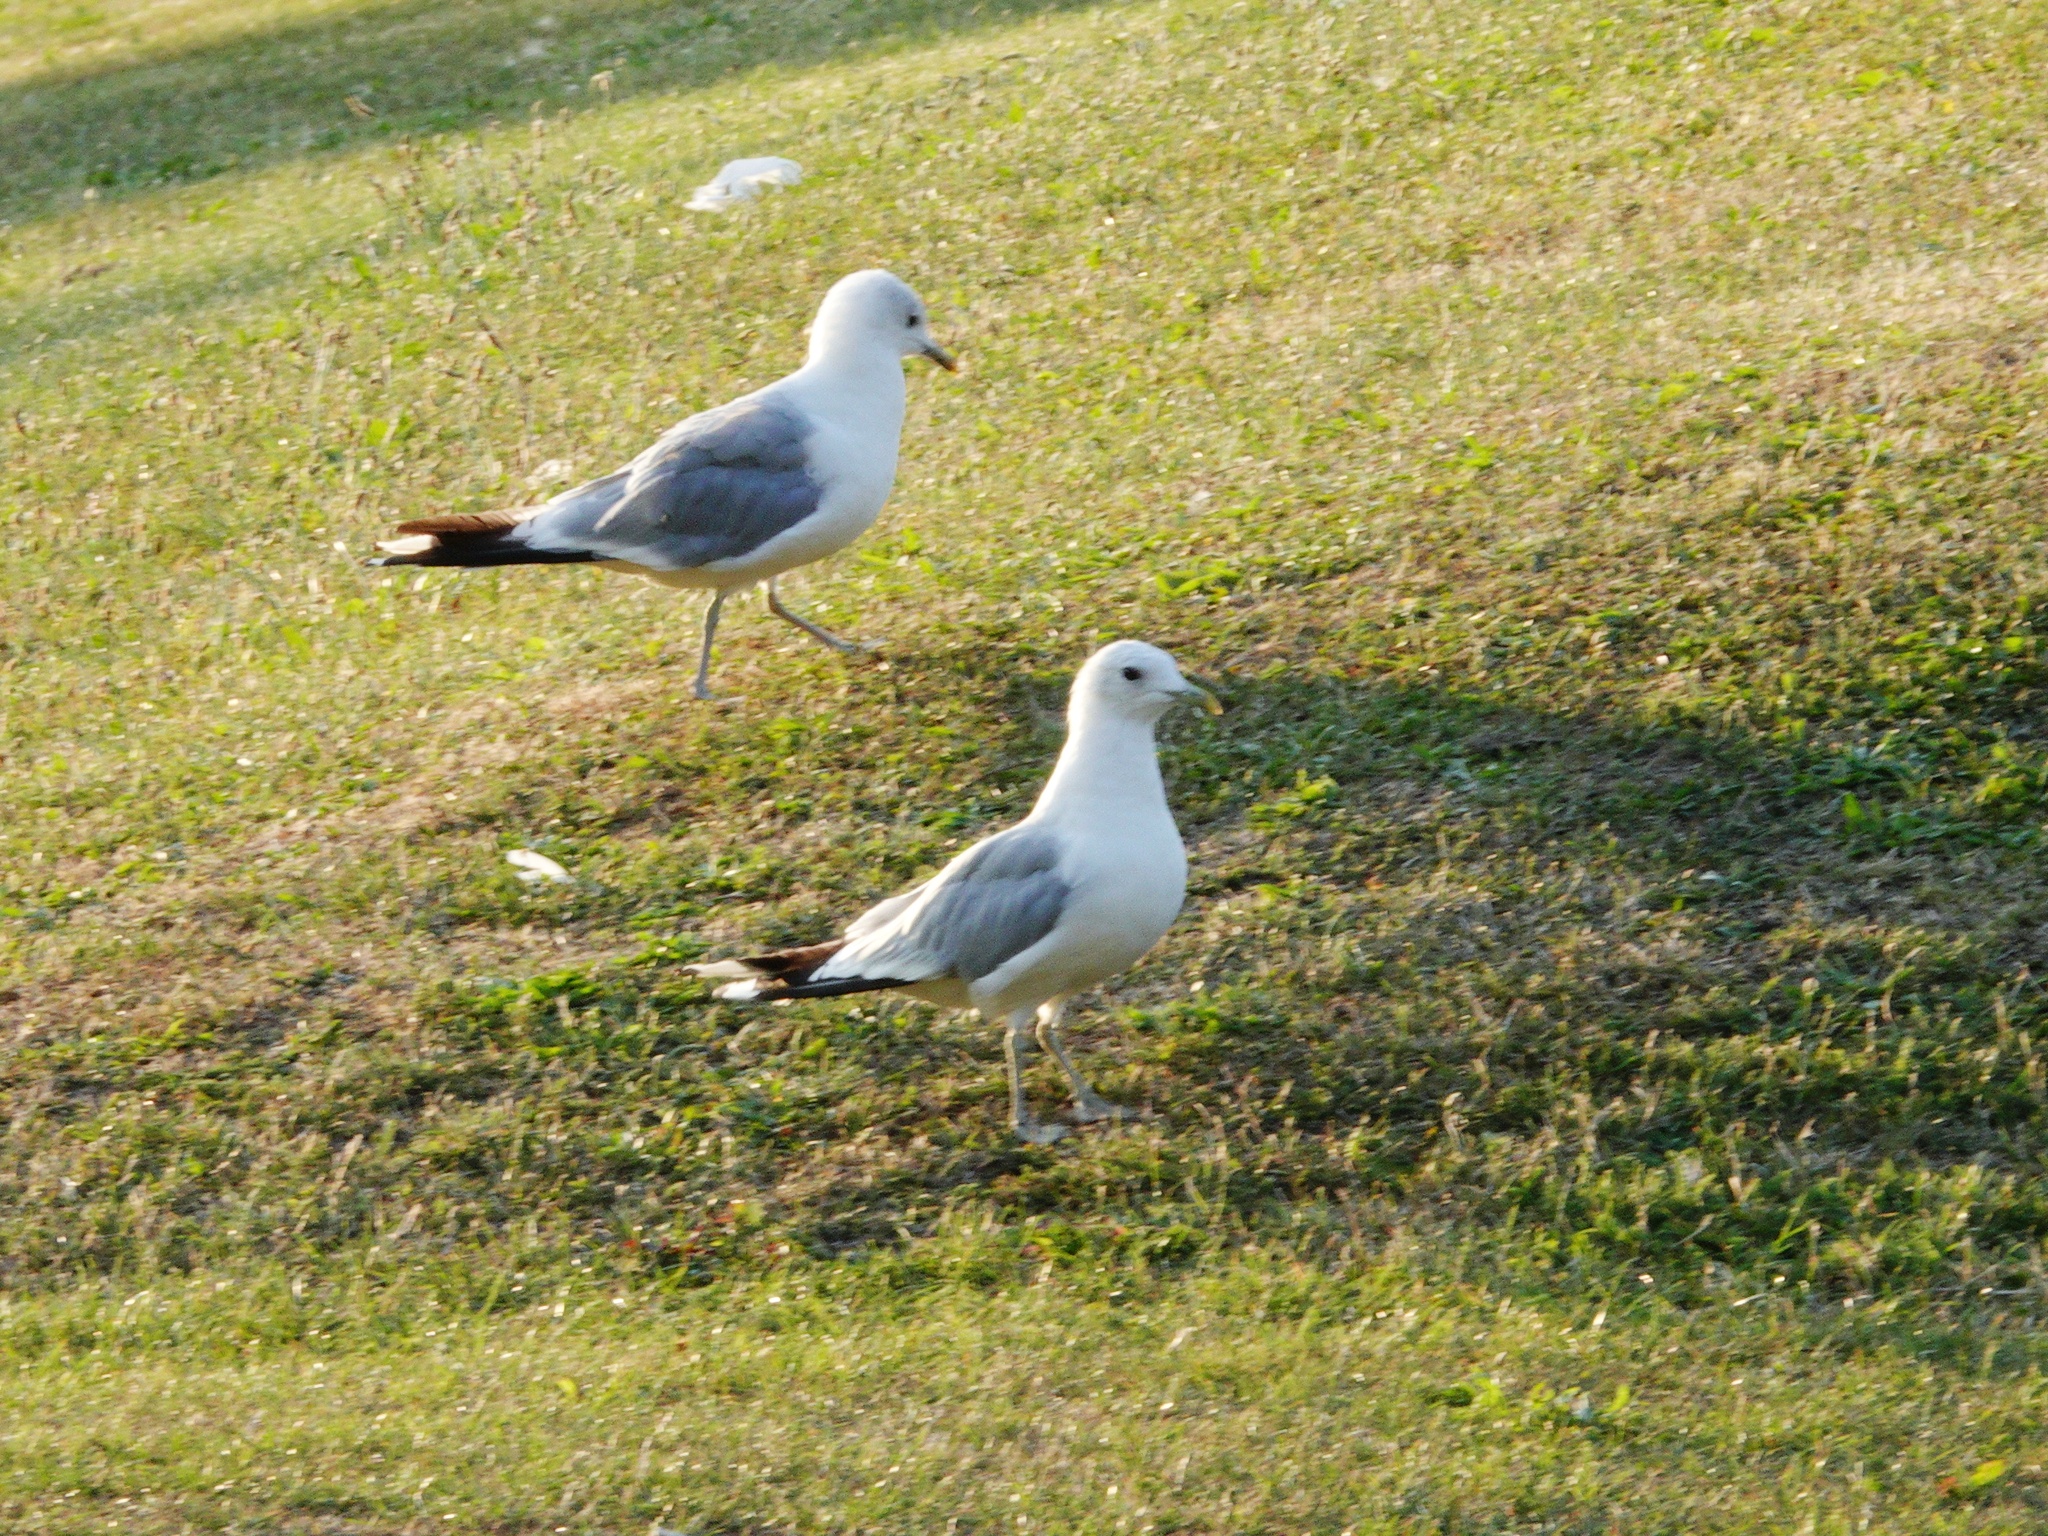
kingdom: Animalia
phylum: Chordata
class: Aves
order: Charadriiformes
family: Laridae
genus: Larus
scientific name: Larus canus
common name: Mew gull
